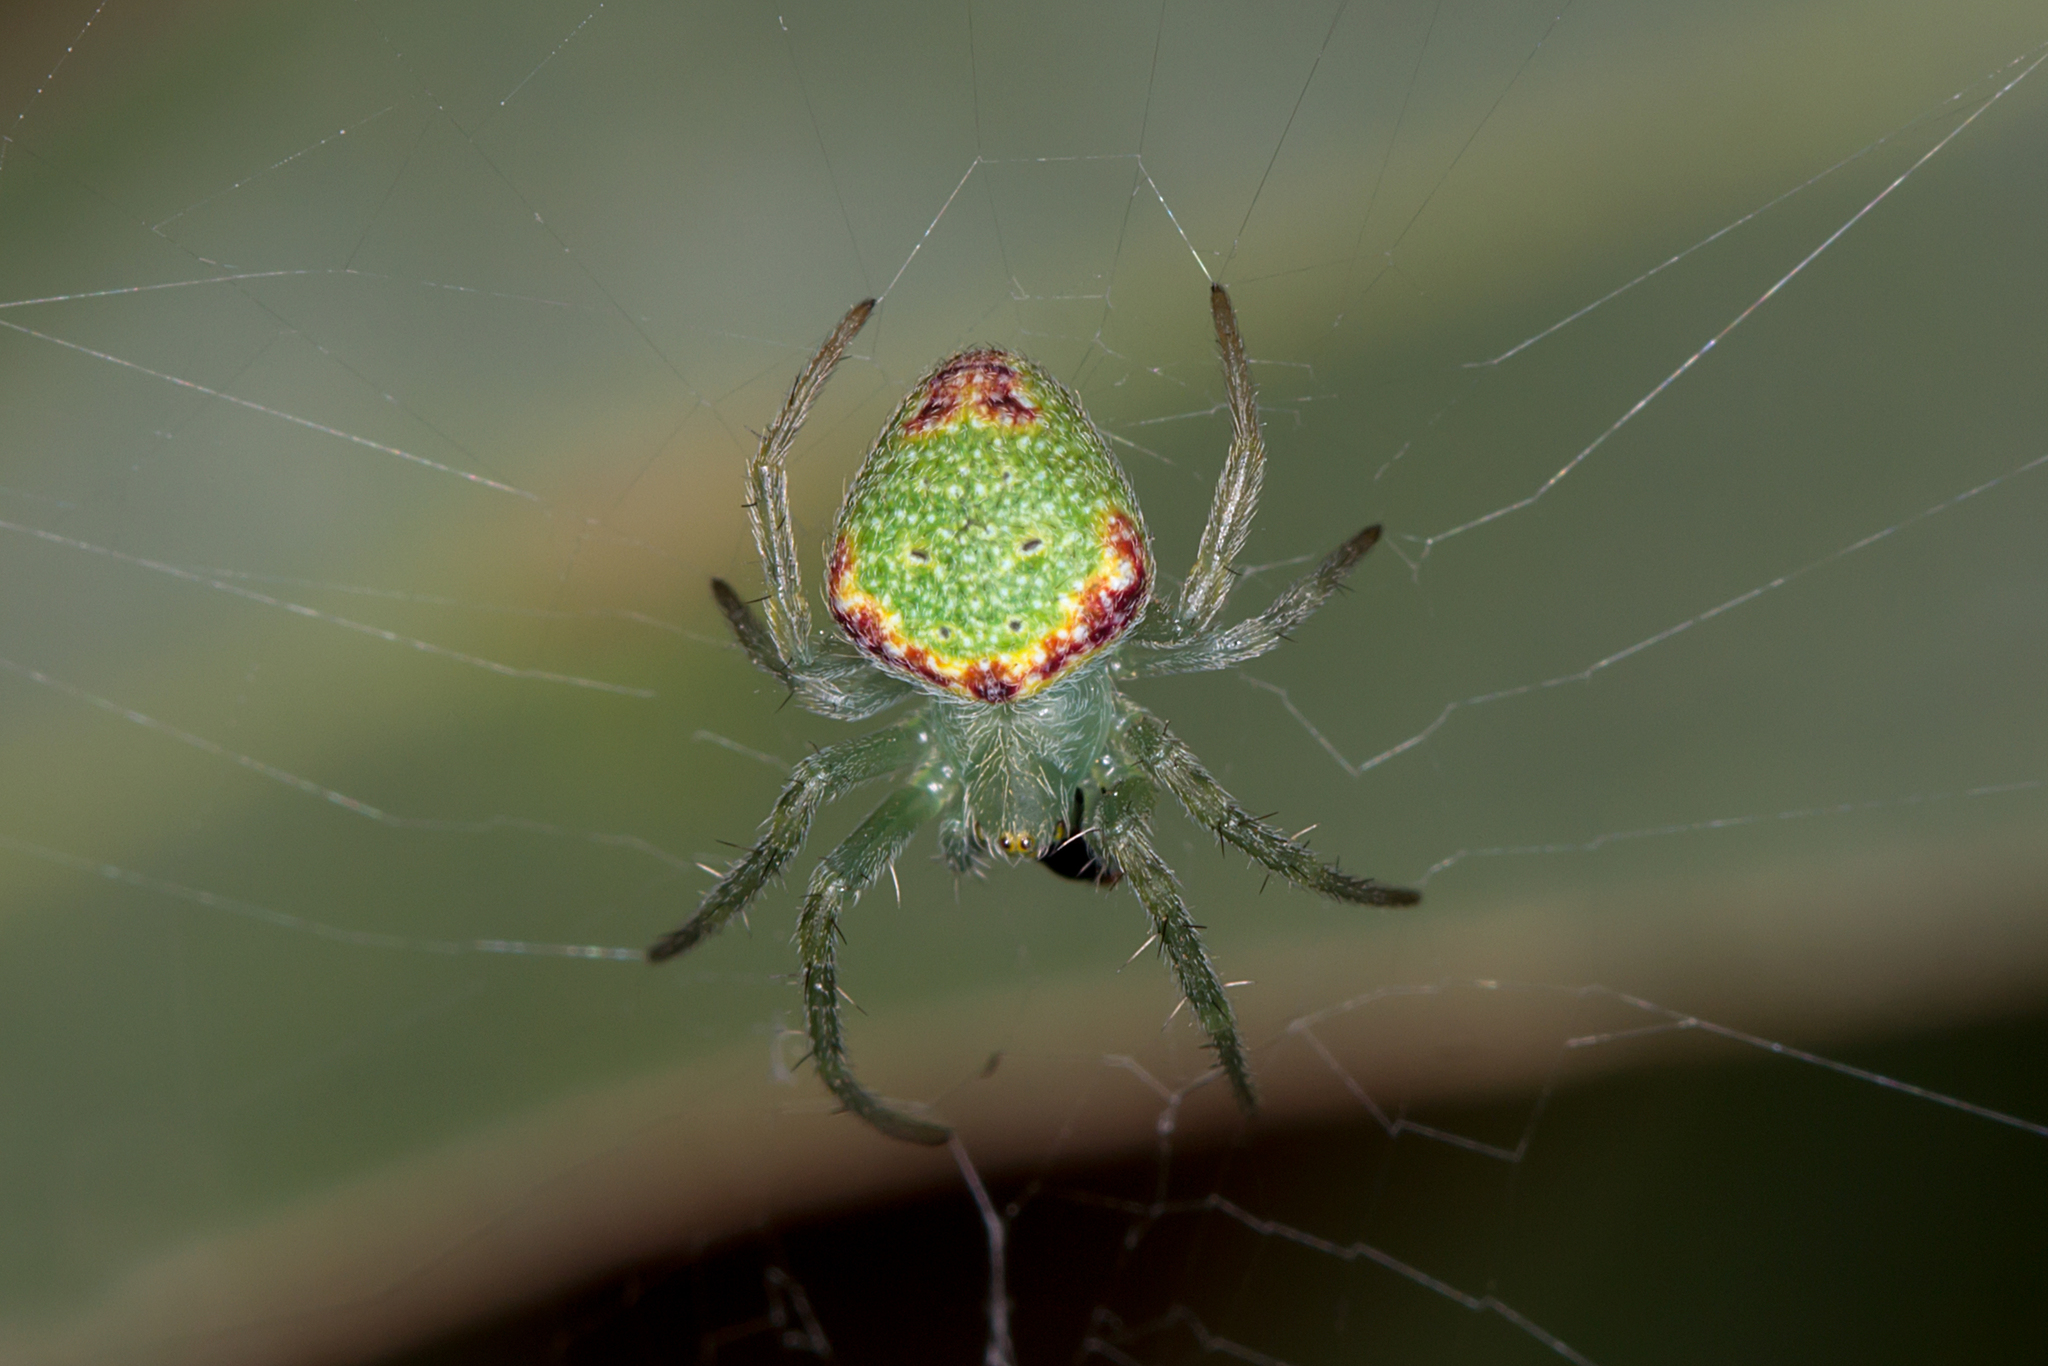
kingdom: Animalia
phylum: Arthropoda
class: Arachnida
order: Araneae
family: Araneidae
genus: Araneus
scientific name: Araneus circulissparsus
